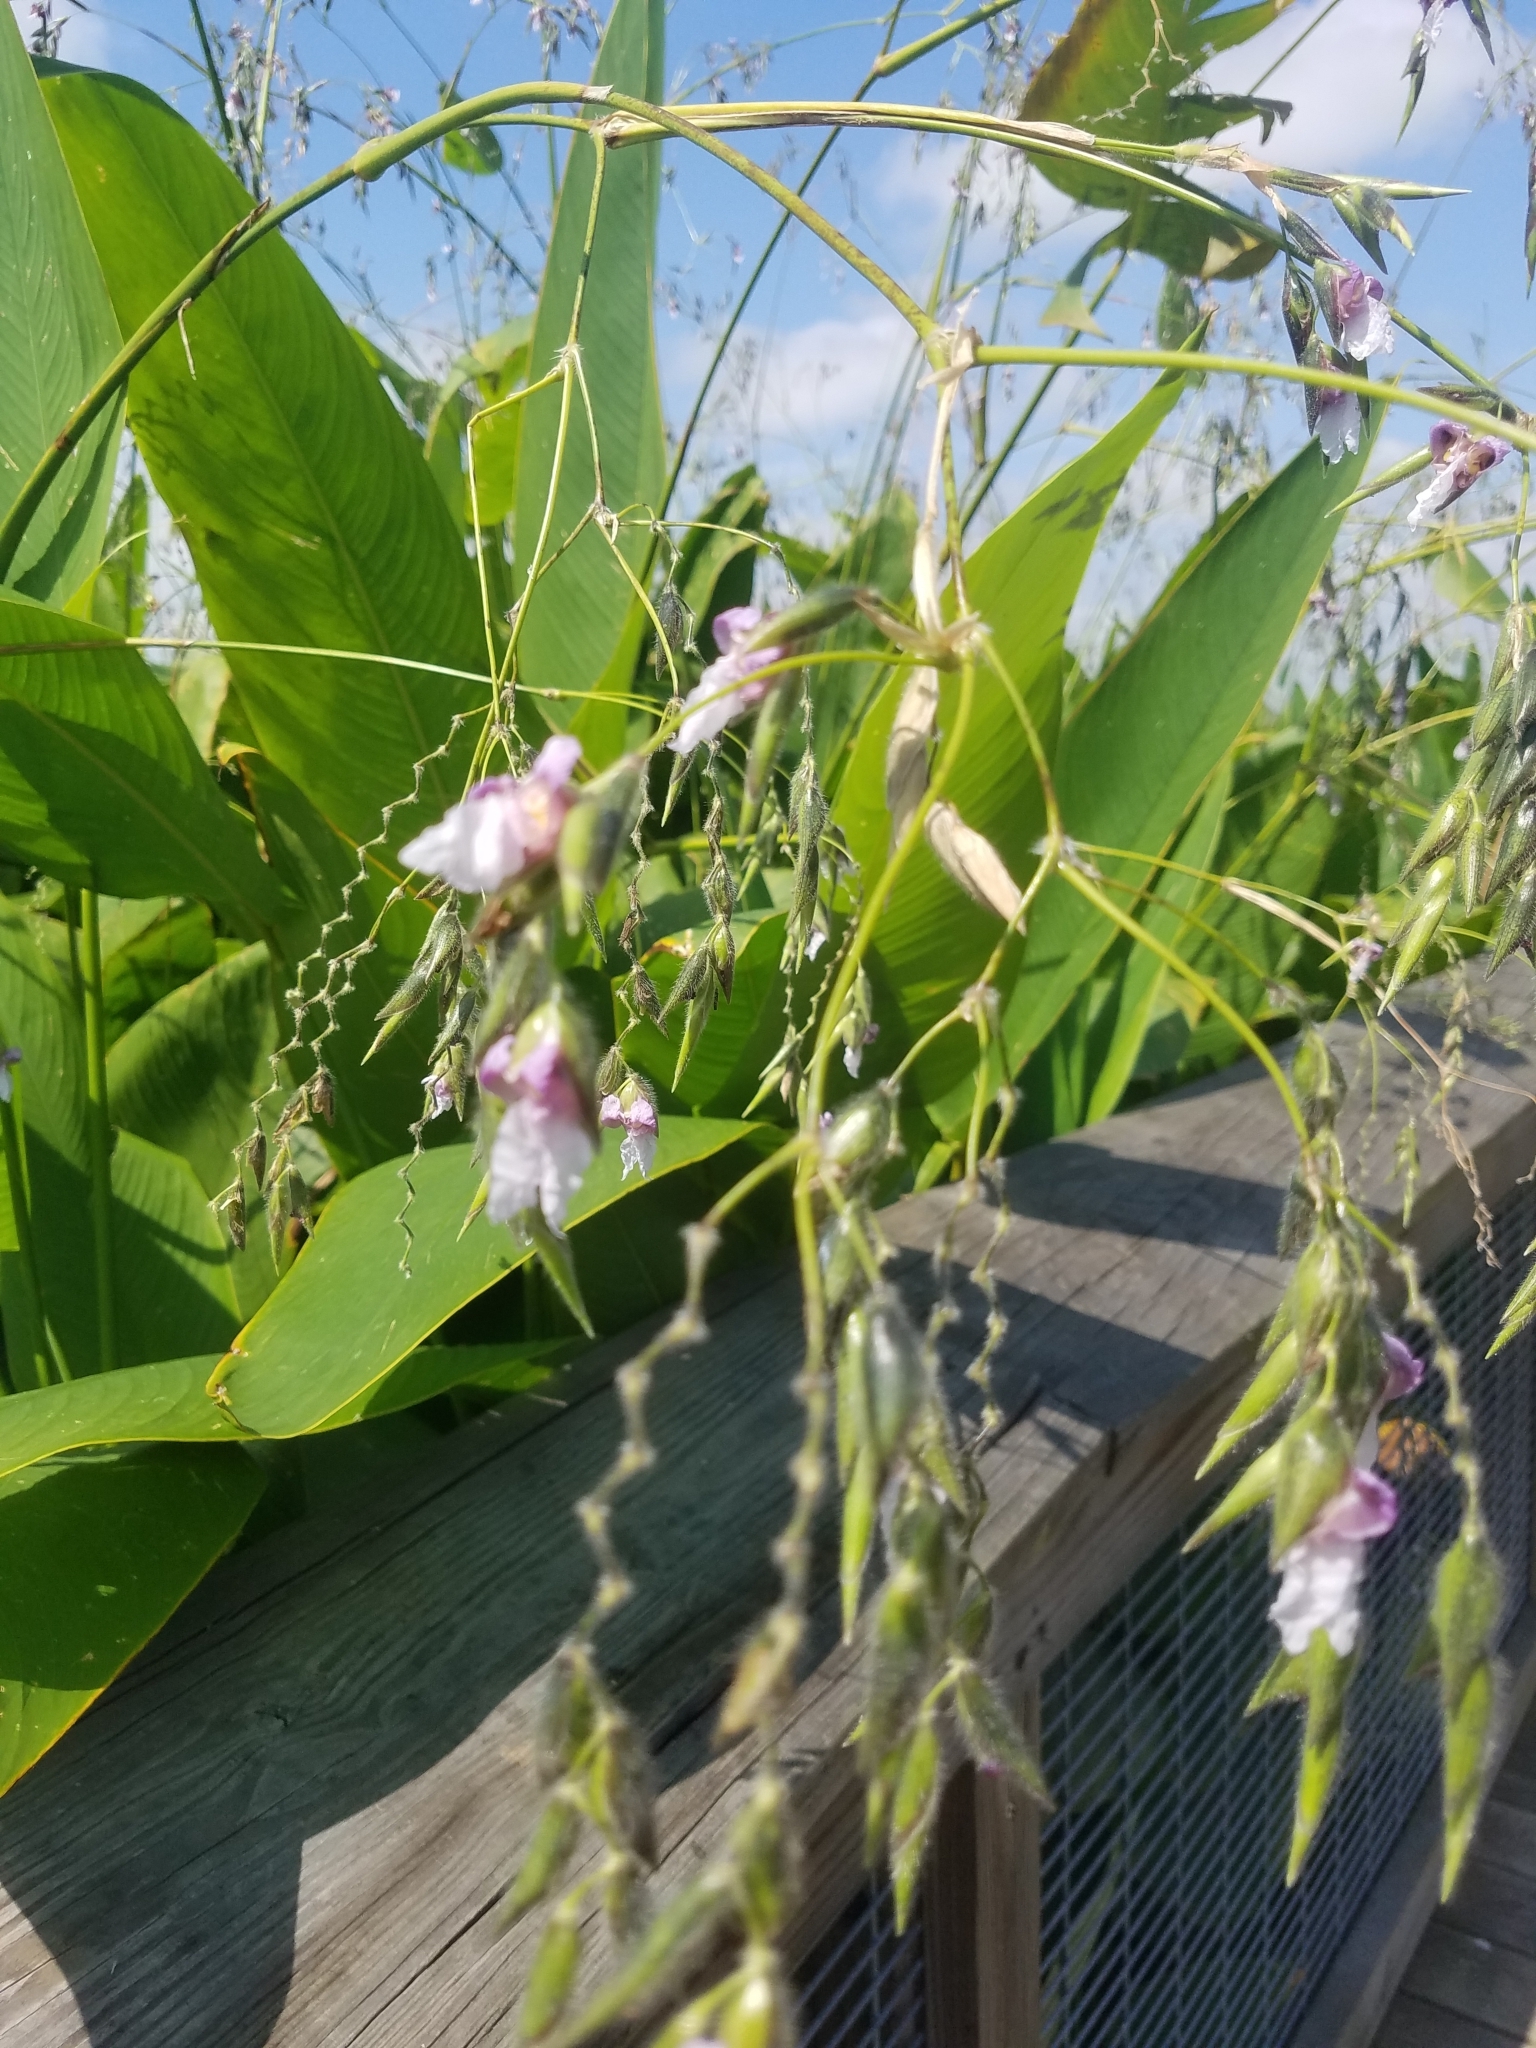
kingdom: Plantae
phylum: Tracheophyta
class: Liliopsida
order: Zingiberales
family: Marantaceae
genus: Thalia
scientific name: Thalia geniculata
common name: Arrowroot
